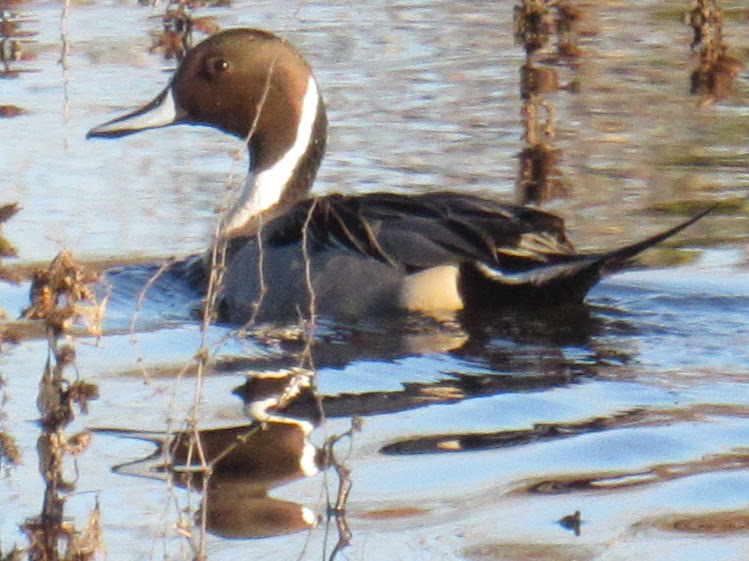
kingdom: Animalia
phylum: Chordata
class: Aves
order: Anseriformes
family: Anatidae
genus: Anas
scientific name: Anas acuta
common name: Northern pintail
